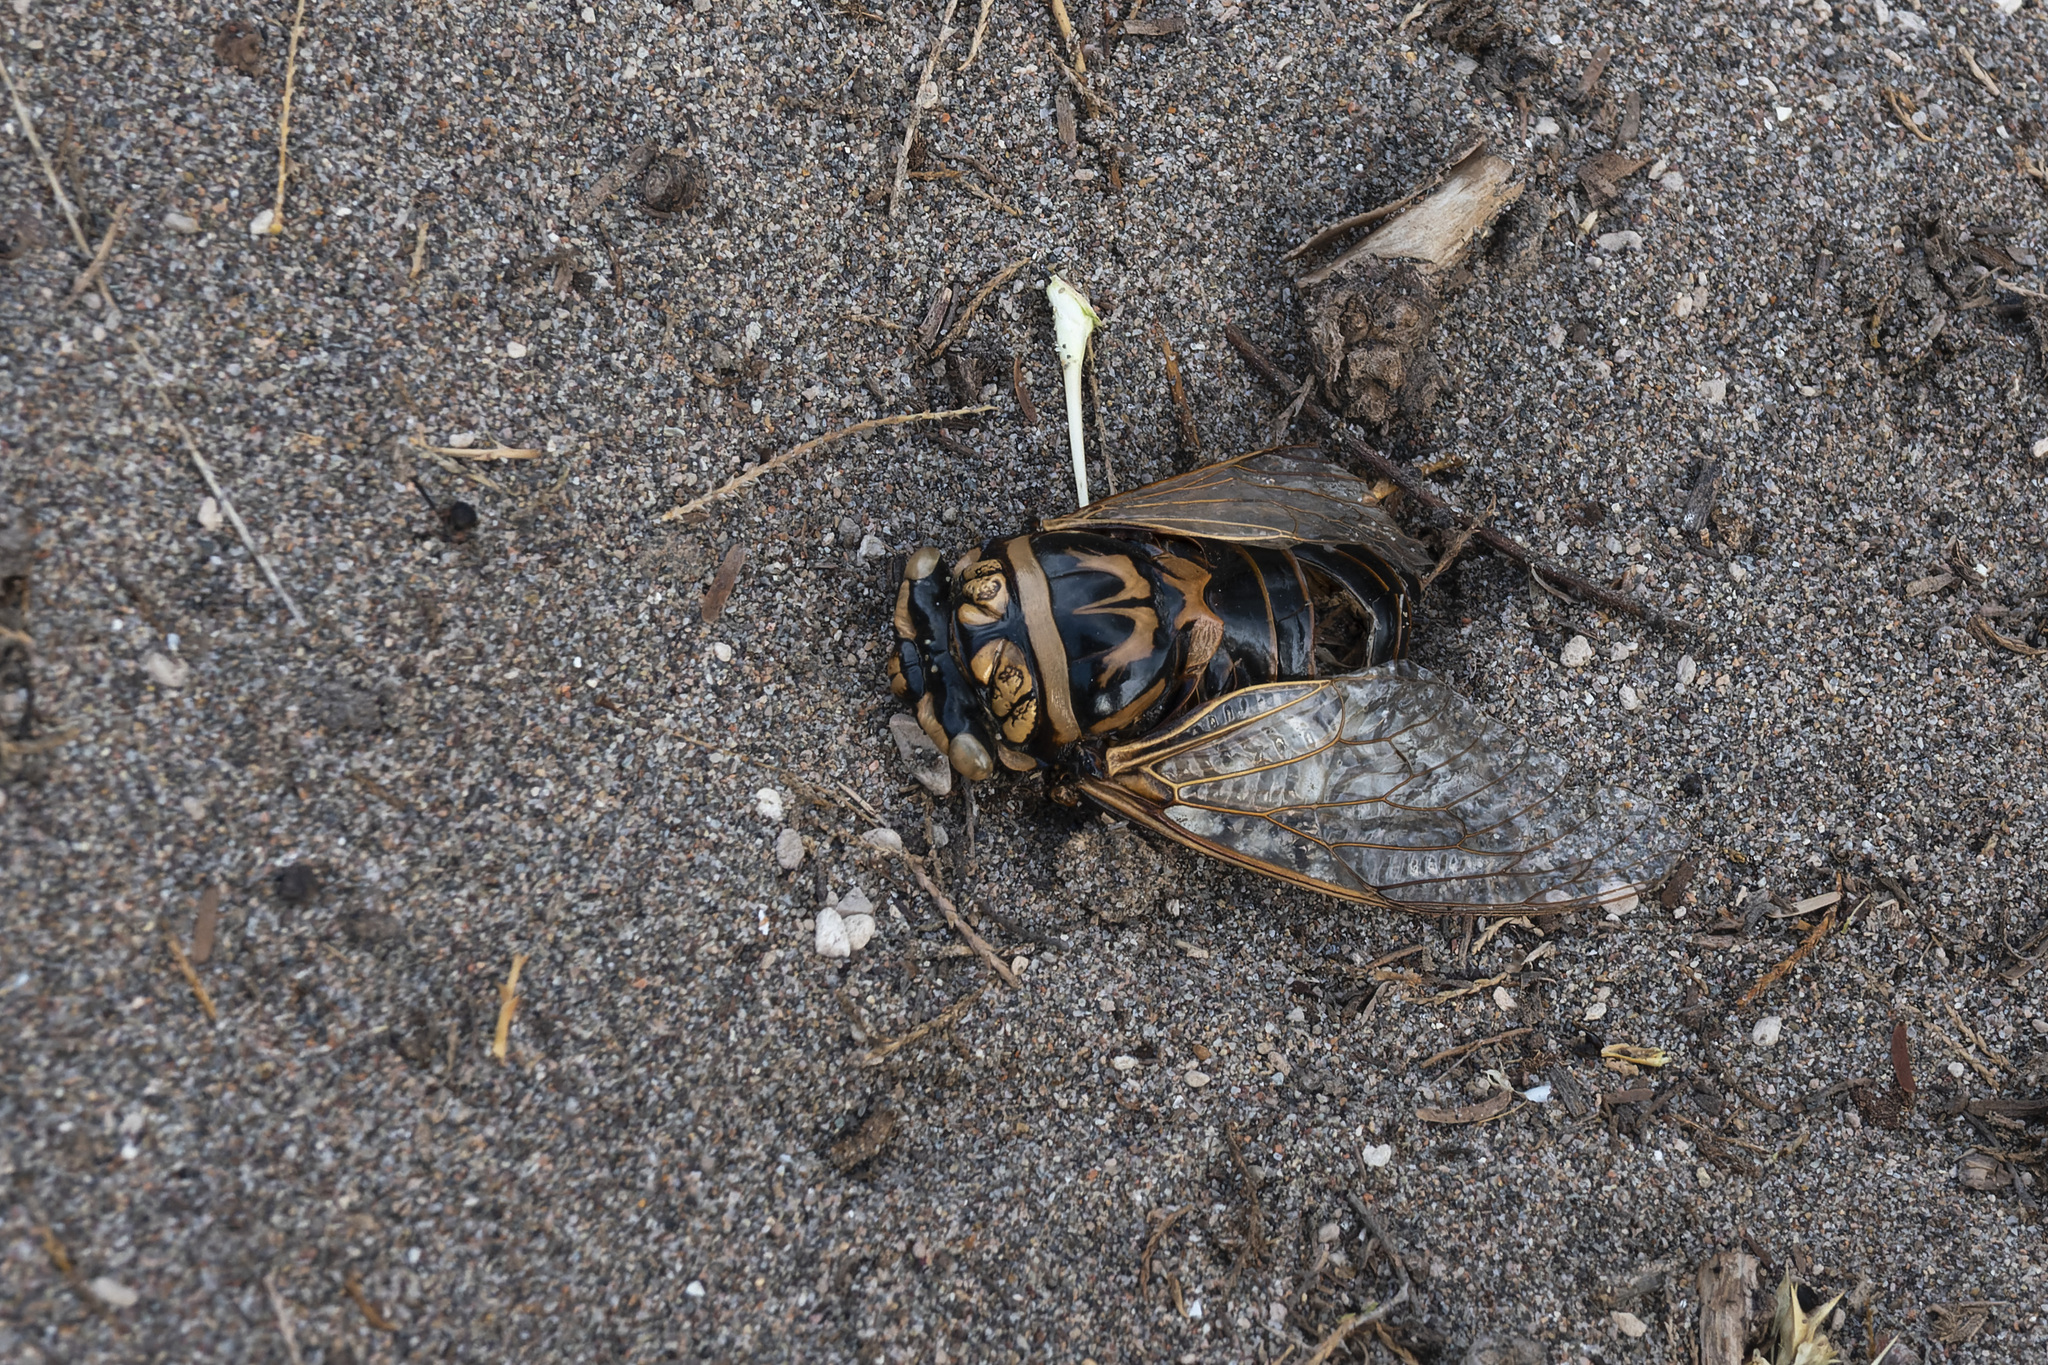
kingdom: Animalia
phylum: Arthropoda
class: Insecta
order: Hemiptera
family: Cicadidae
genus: Guyalna
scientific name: Guyalna bonaerensis
